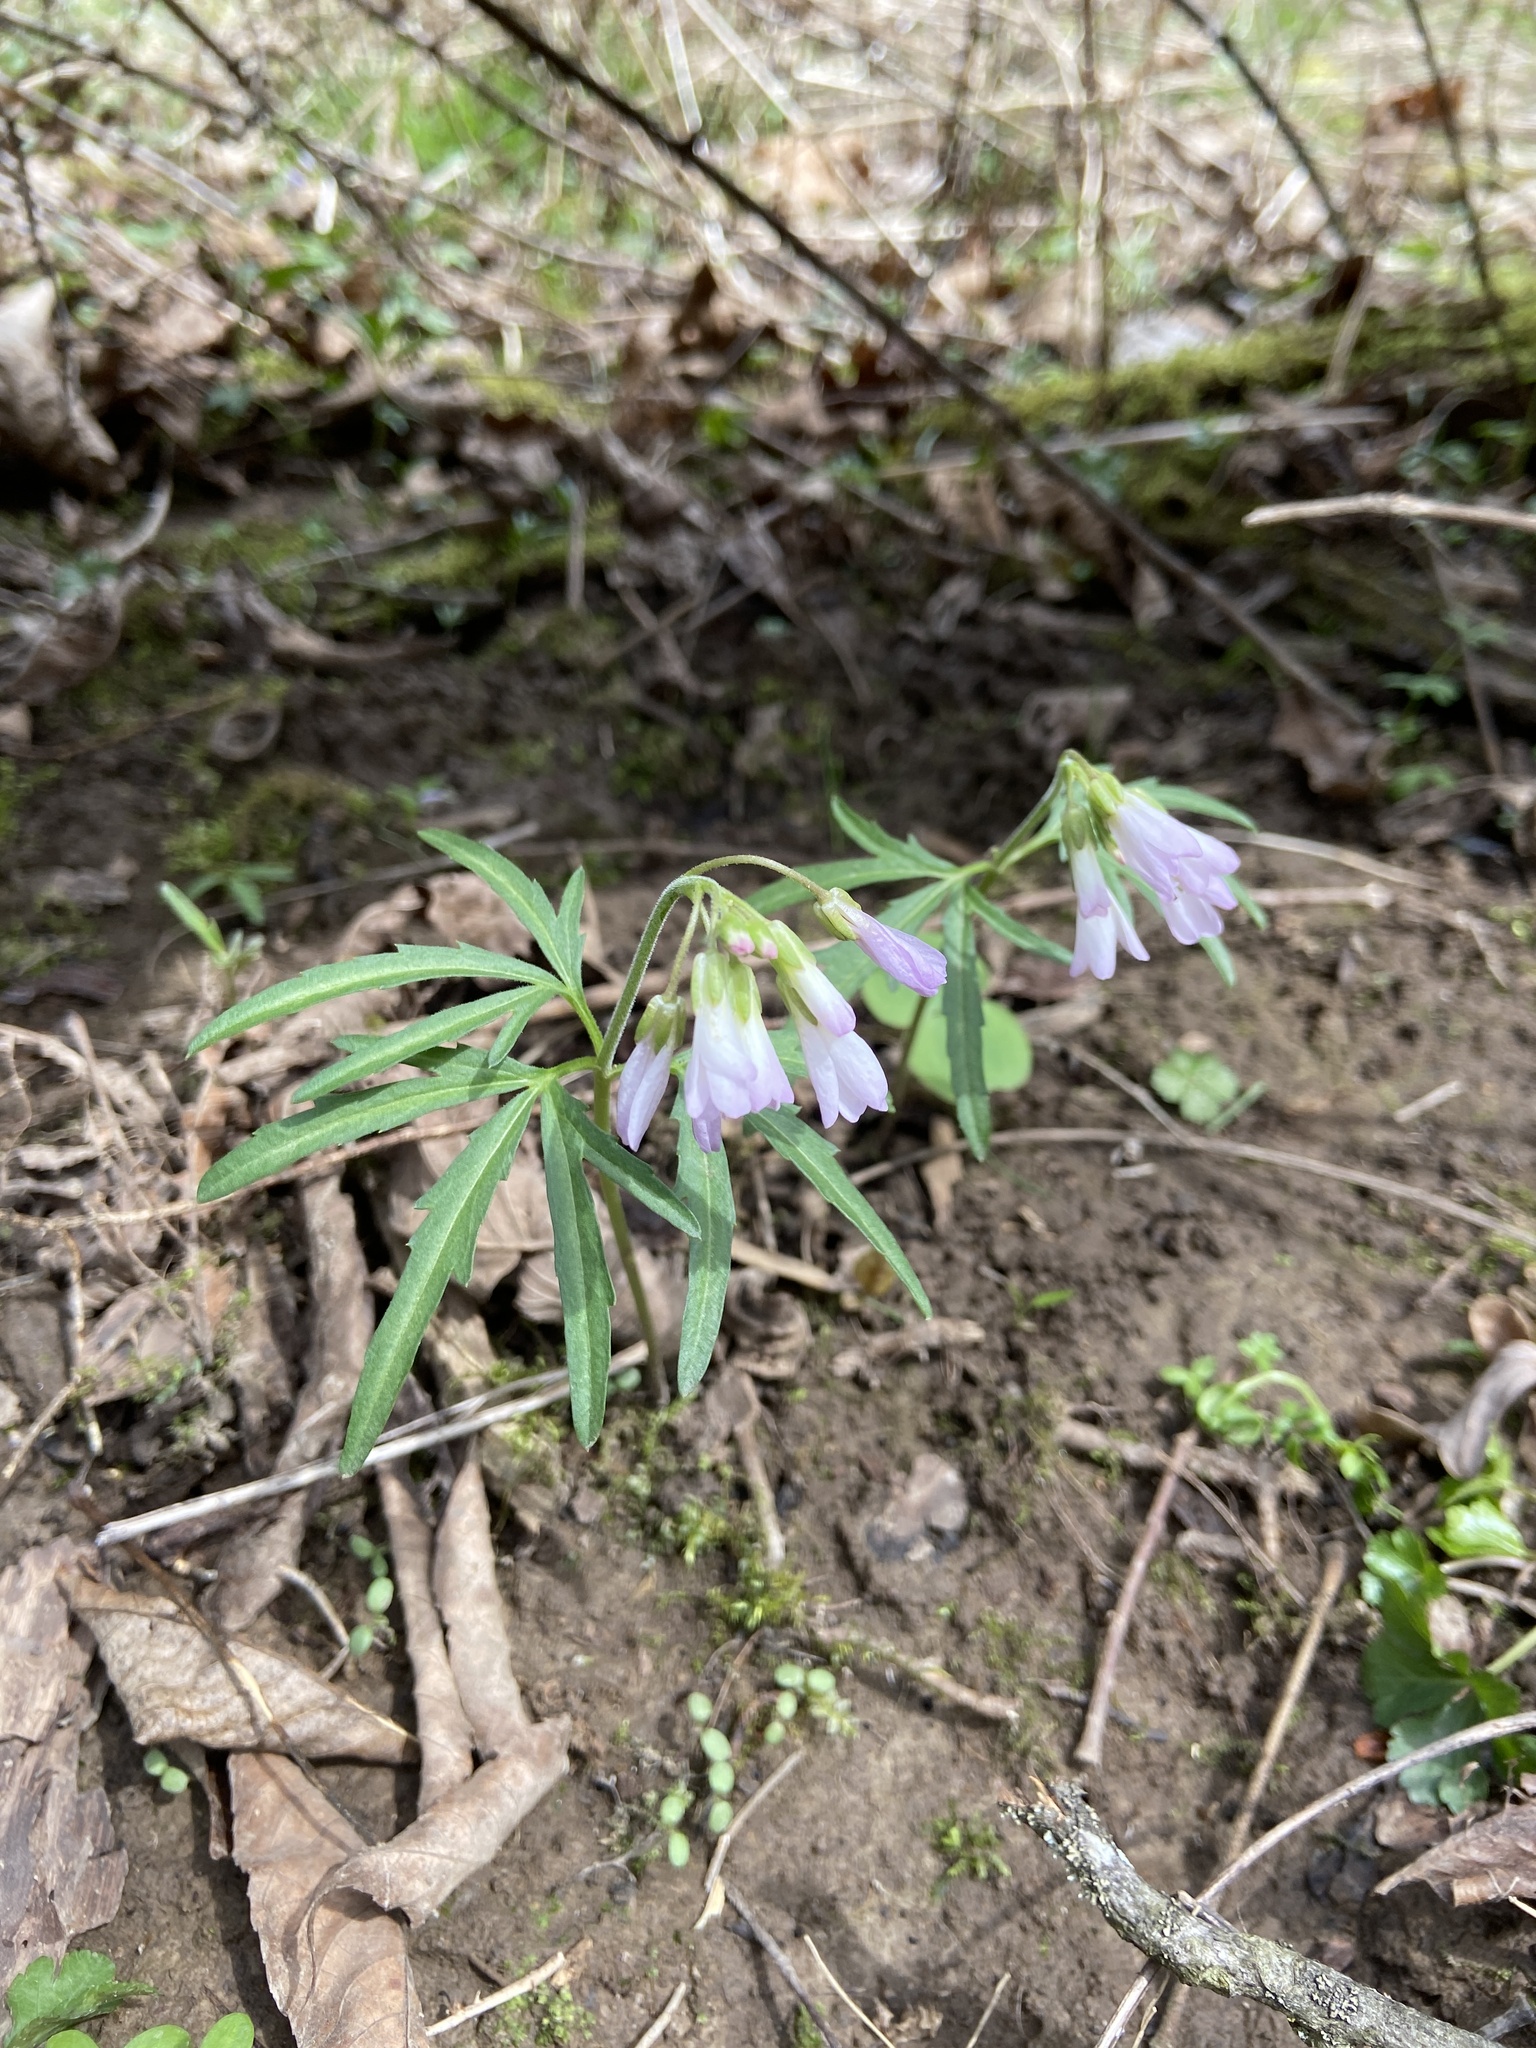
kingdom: Plantae
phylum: Tracheophyta
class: Magnoliopsida
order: Brassicales
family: Brassicaceae
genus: Cardamine
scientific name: Cardamine concatenata
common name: Cut-leaf toothcup
